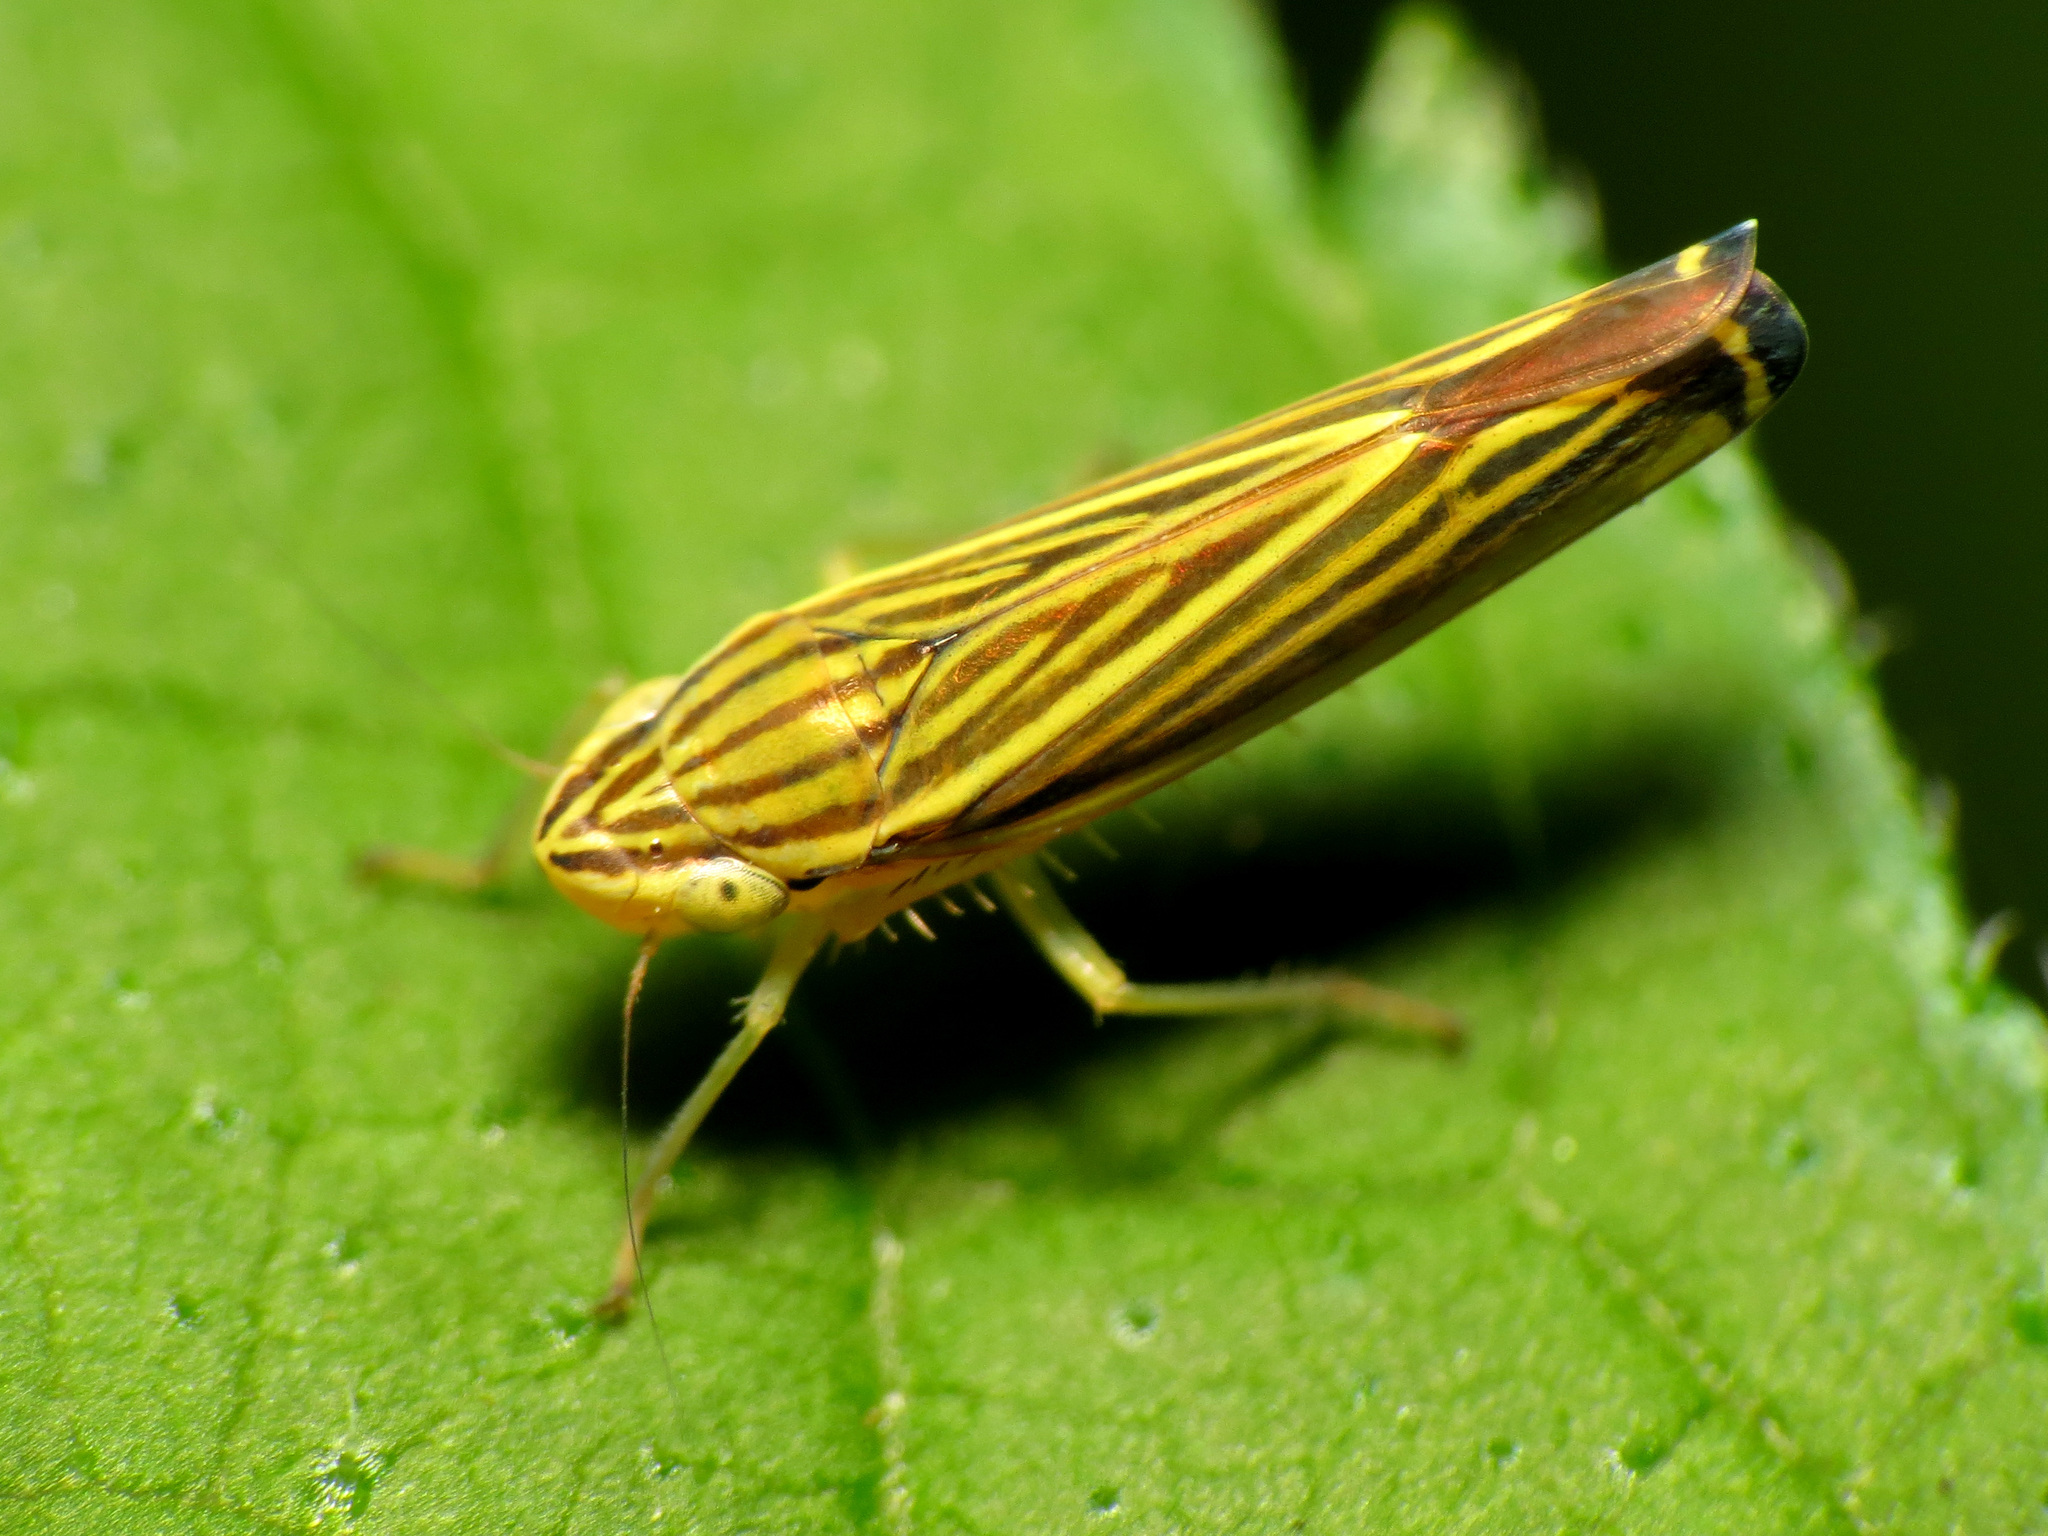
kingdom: Animalia
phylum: Arthropoda
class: Insecta
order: Hemiptera
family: Cicadellidae
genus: Sibovia
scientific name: Sibovia occatoria
